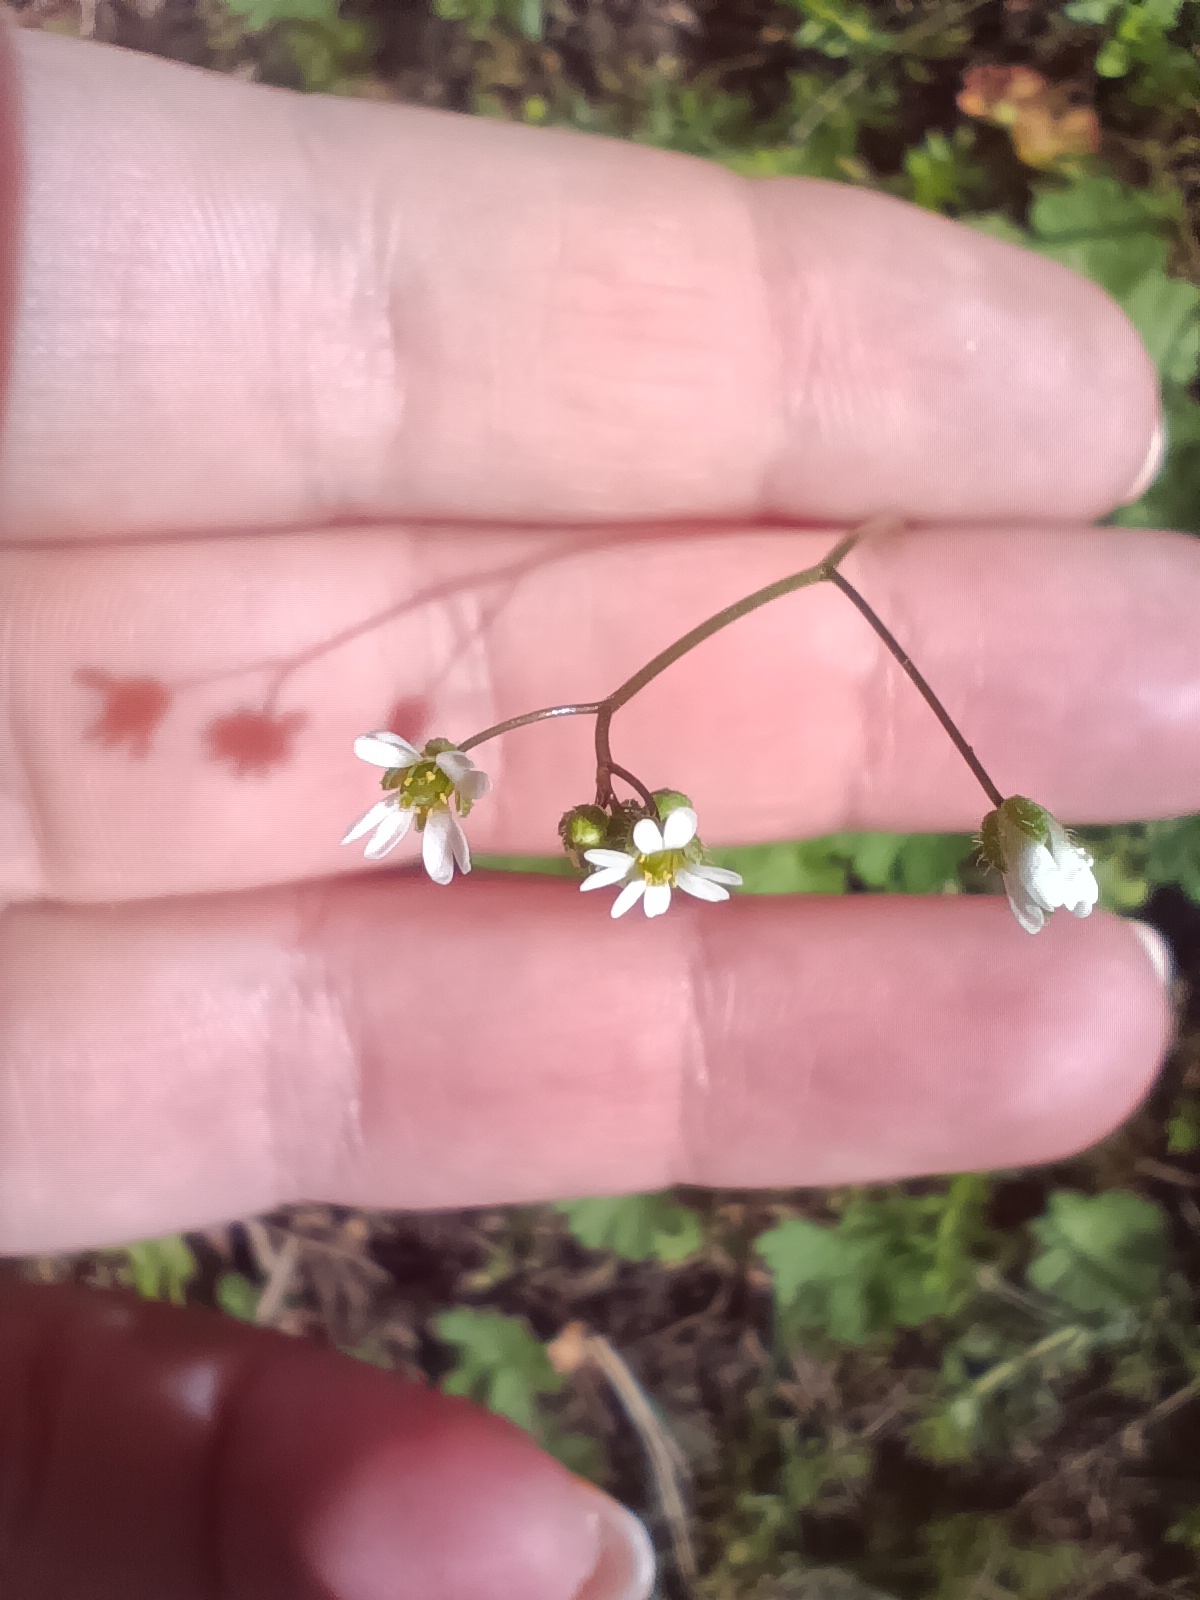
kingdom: Plantae
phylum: Tracheophyta
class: Magnoliopsida
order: Brassicales
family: Brassicaceae
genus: Draba
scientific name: Draba verna
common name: Spring draba
